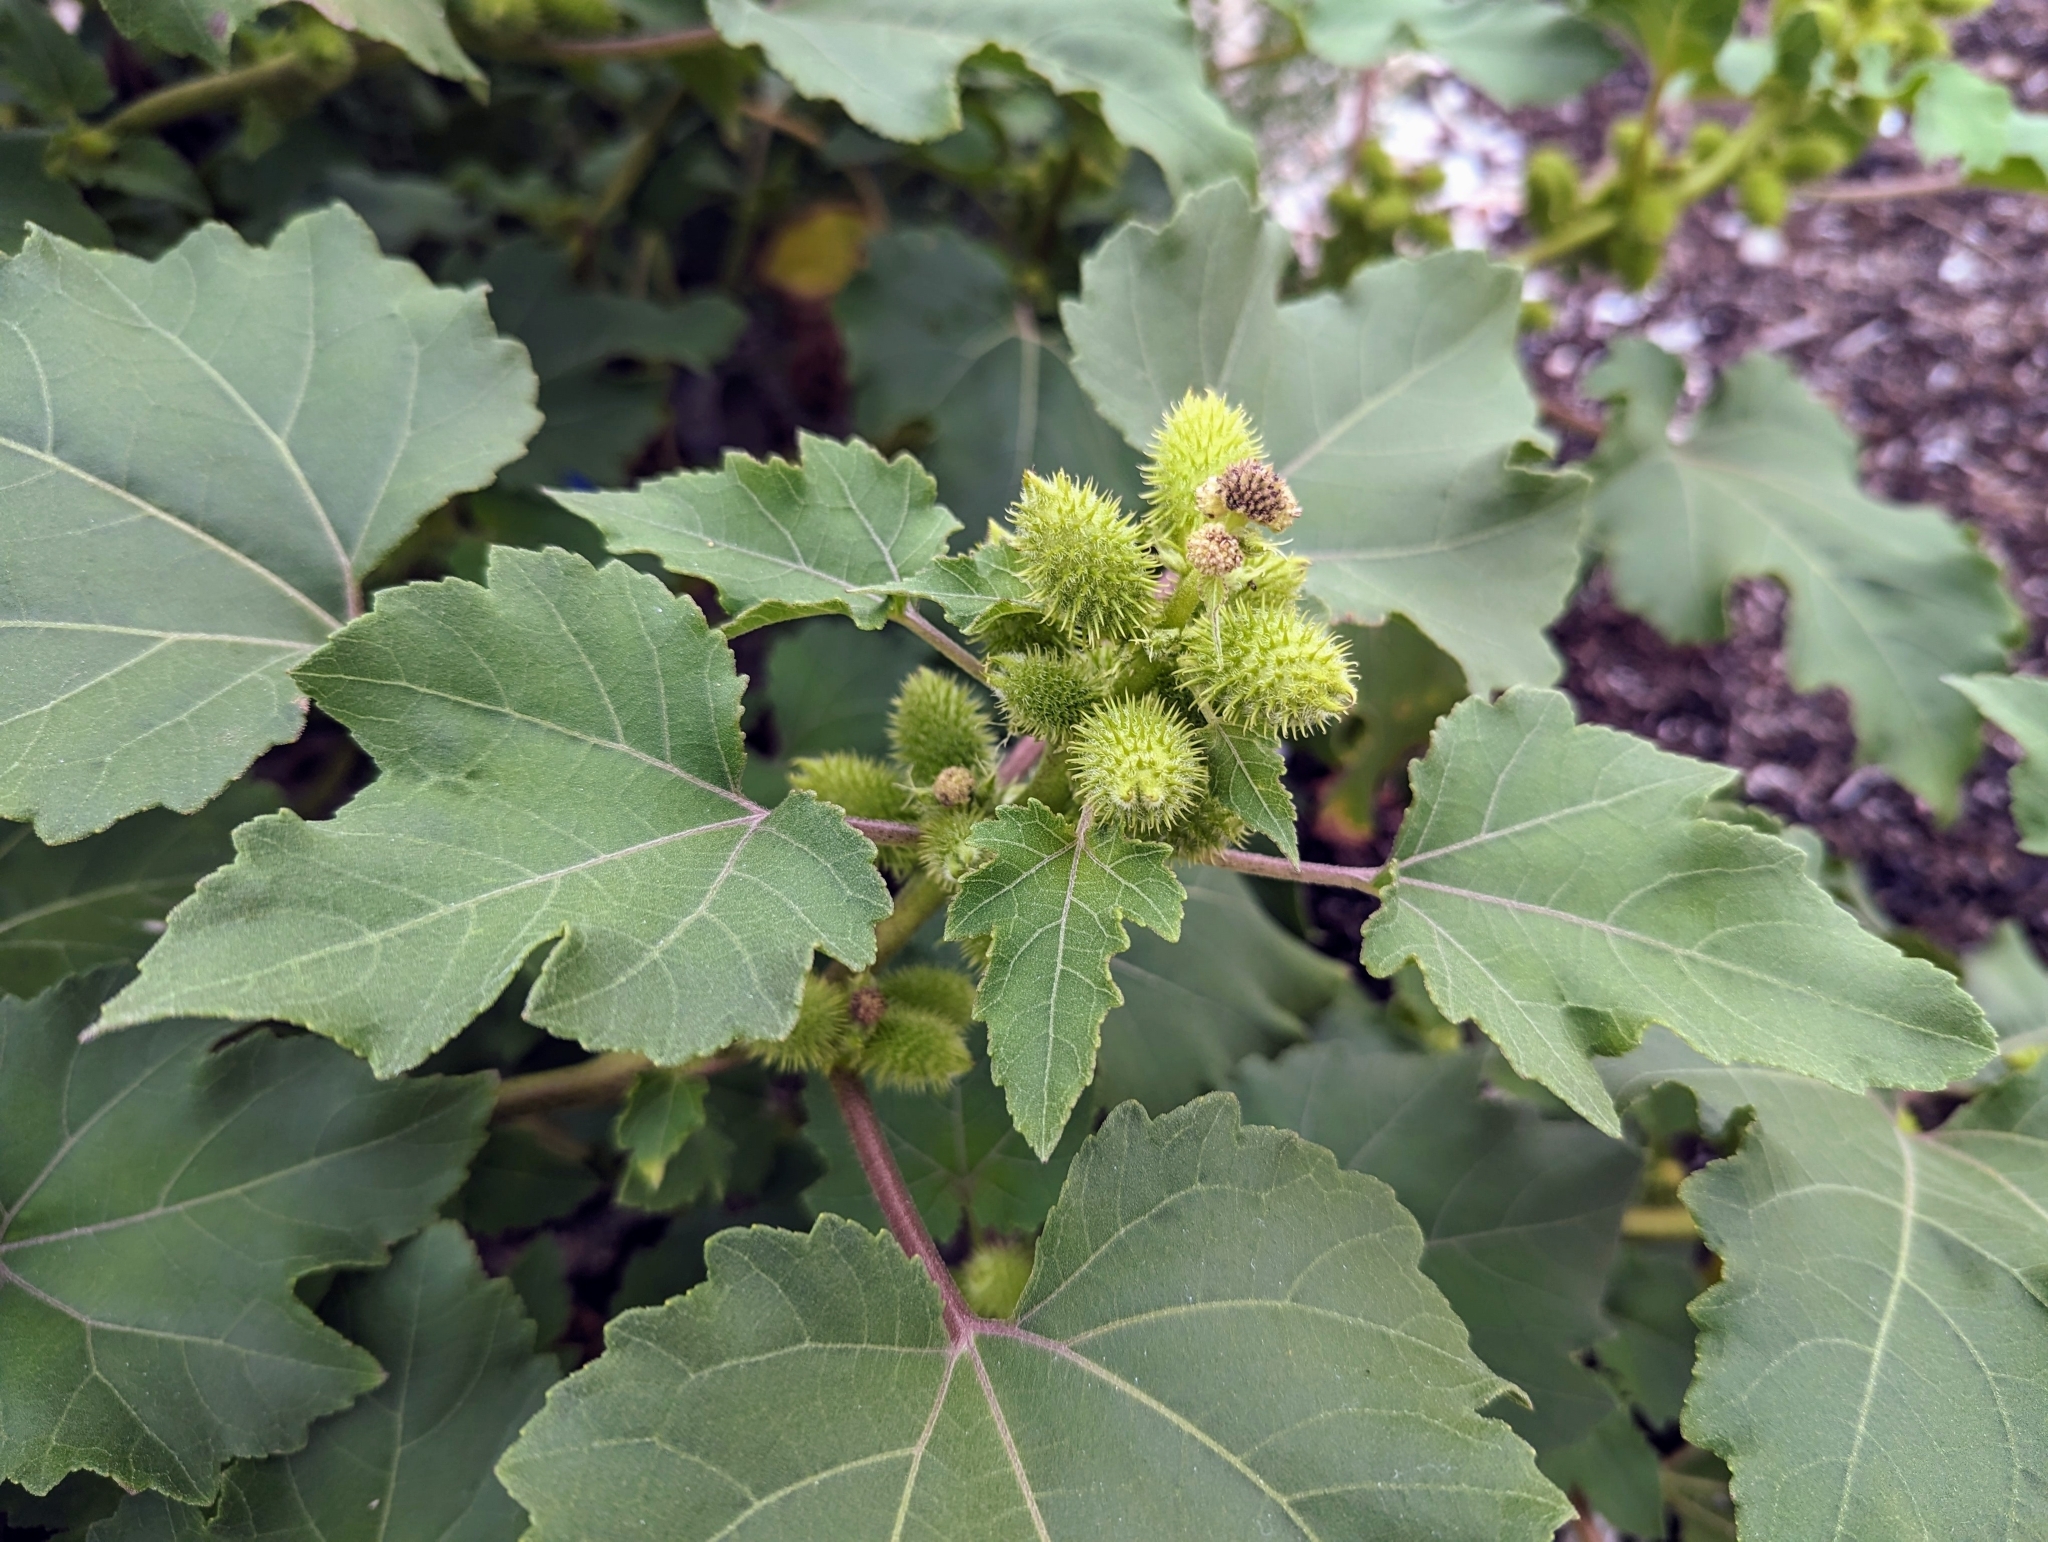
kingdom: Plantae
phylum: Tracheophyta
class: Magnoliopsida
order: Asterales
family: Asteraceae
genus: Xanthium
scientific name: Xanthium strumarium
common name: Rough cocklebur
